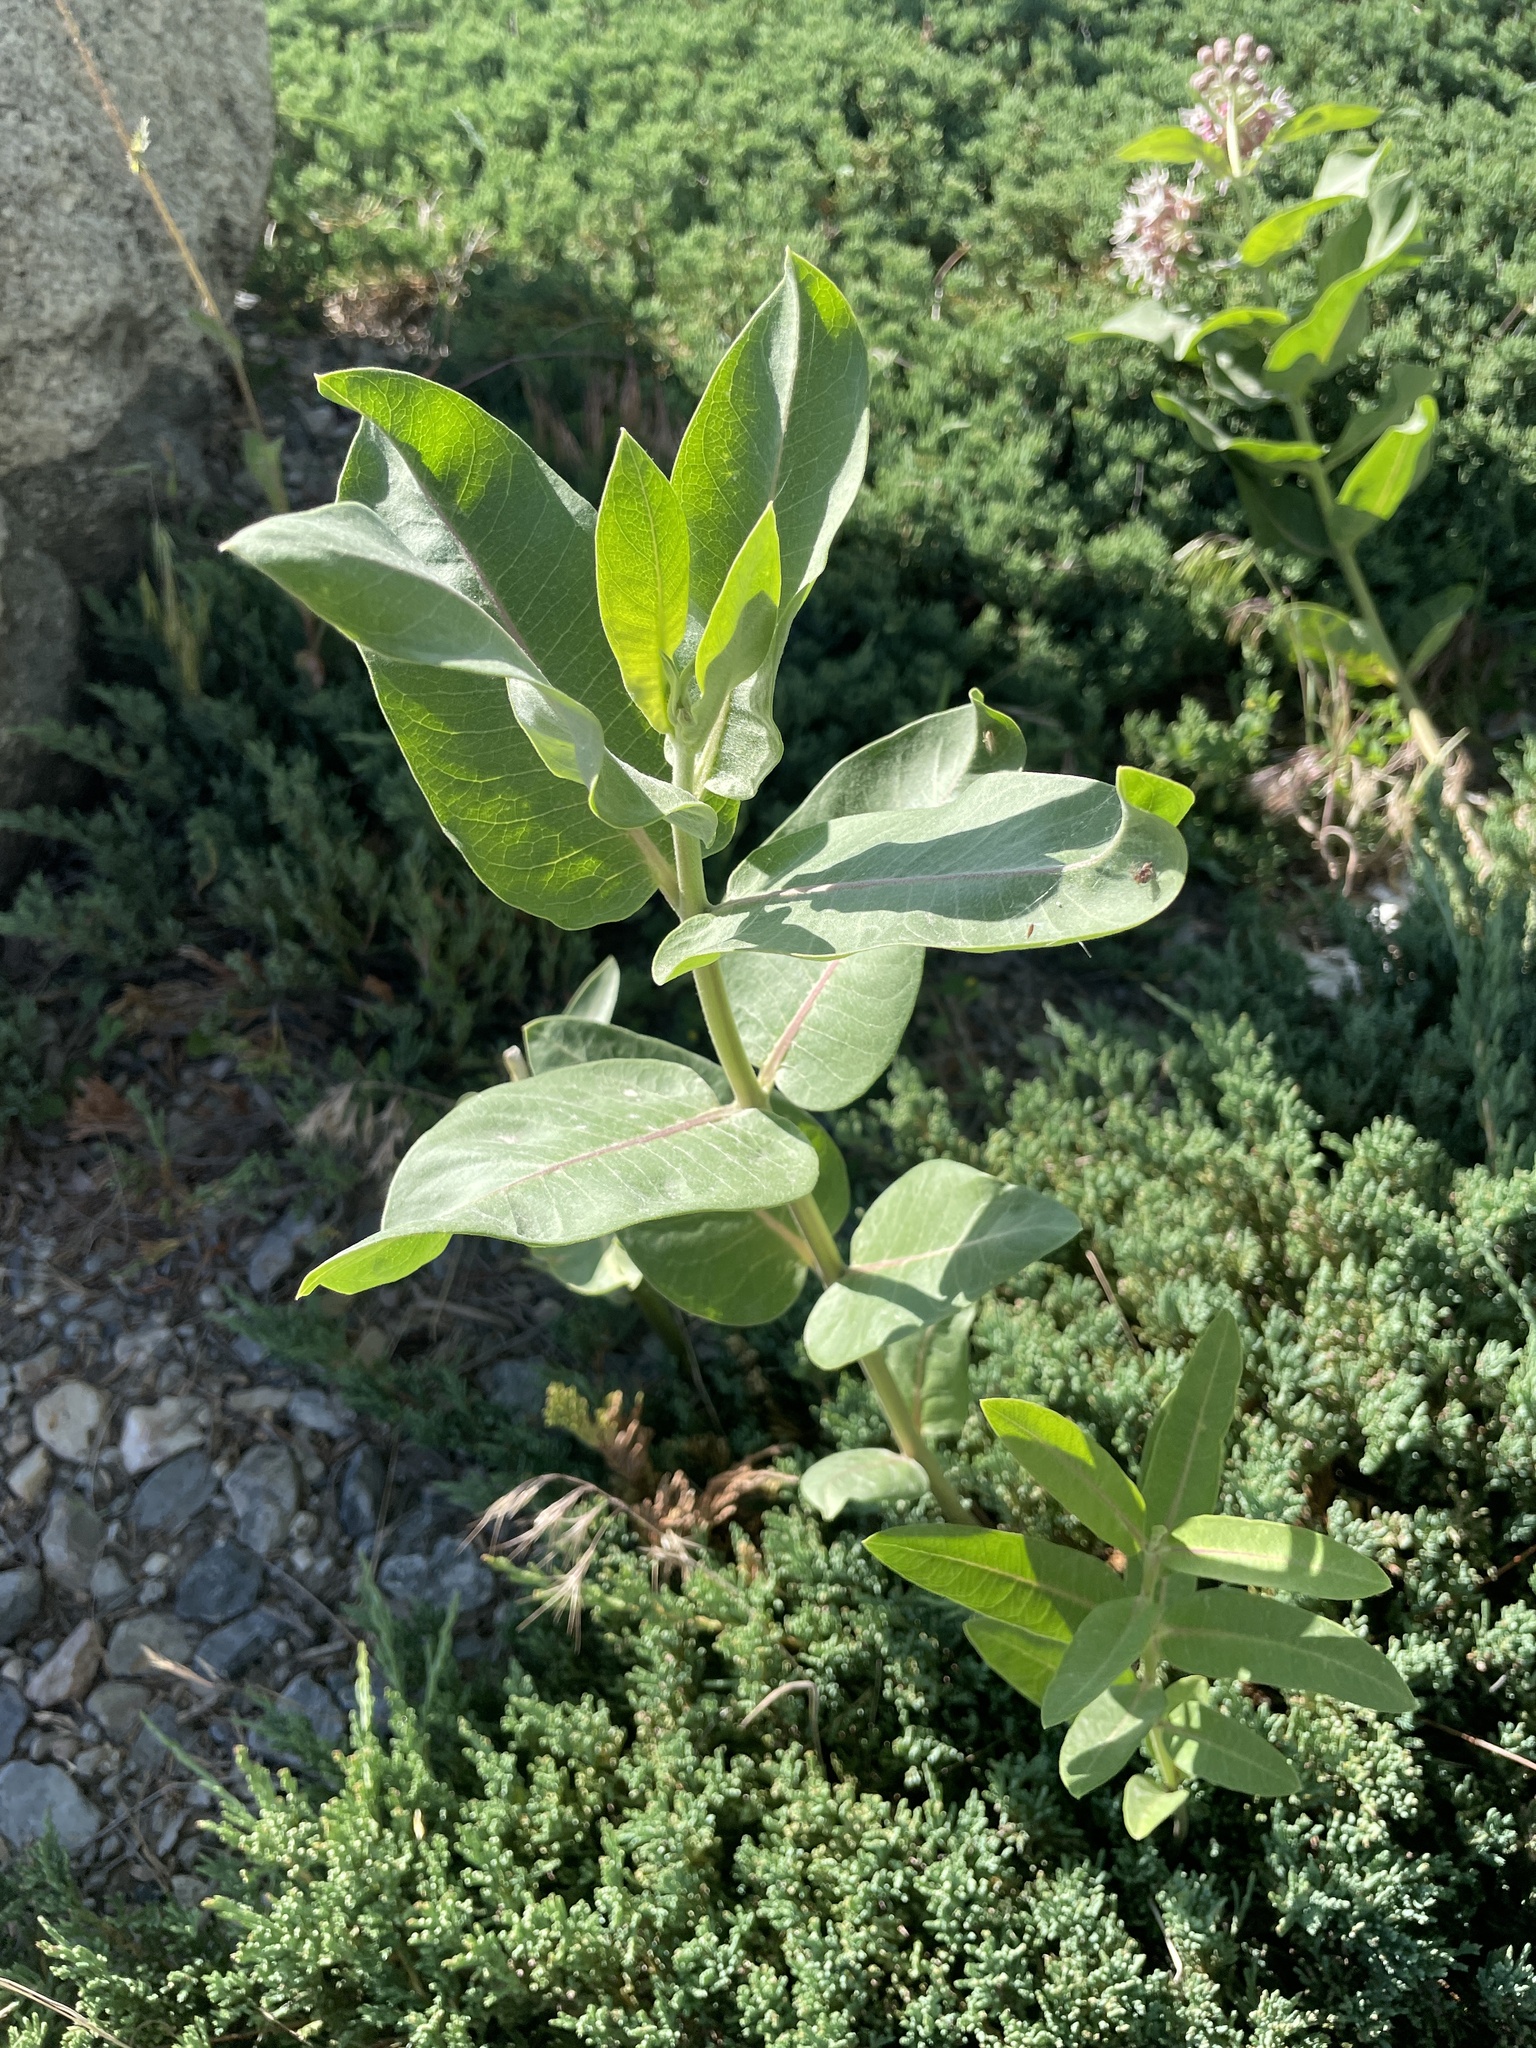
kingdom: Plantae
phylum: Tracheophyta
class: Magnoliopsida
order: Gentianales
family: Apocynaceae
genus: Asclepias
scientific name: Asclepias speciosa
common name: Showy milkweed
